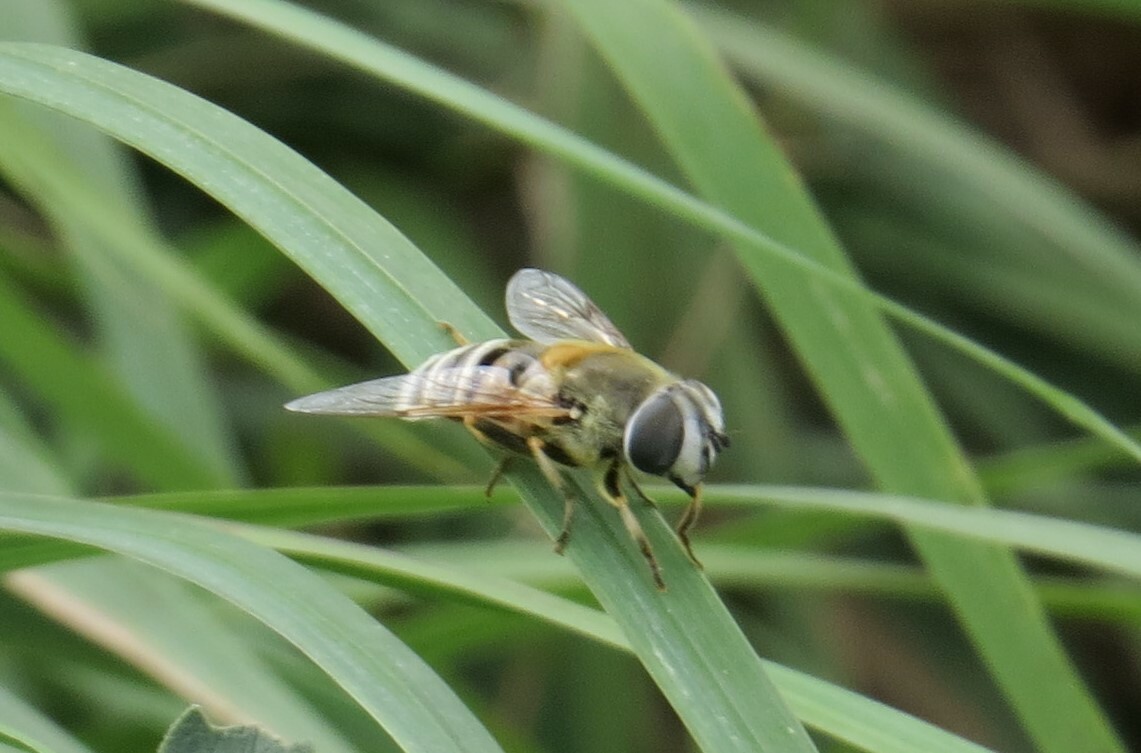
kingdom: Animalia
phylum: Arthropoda
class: Insecta
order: Diptera
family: Syrphidae
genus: Eristalis
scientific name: Eristalis stipator
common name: Yellow-shouldered drone fly
